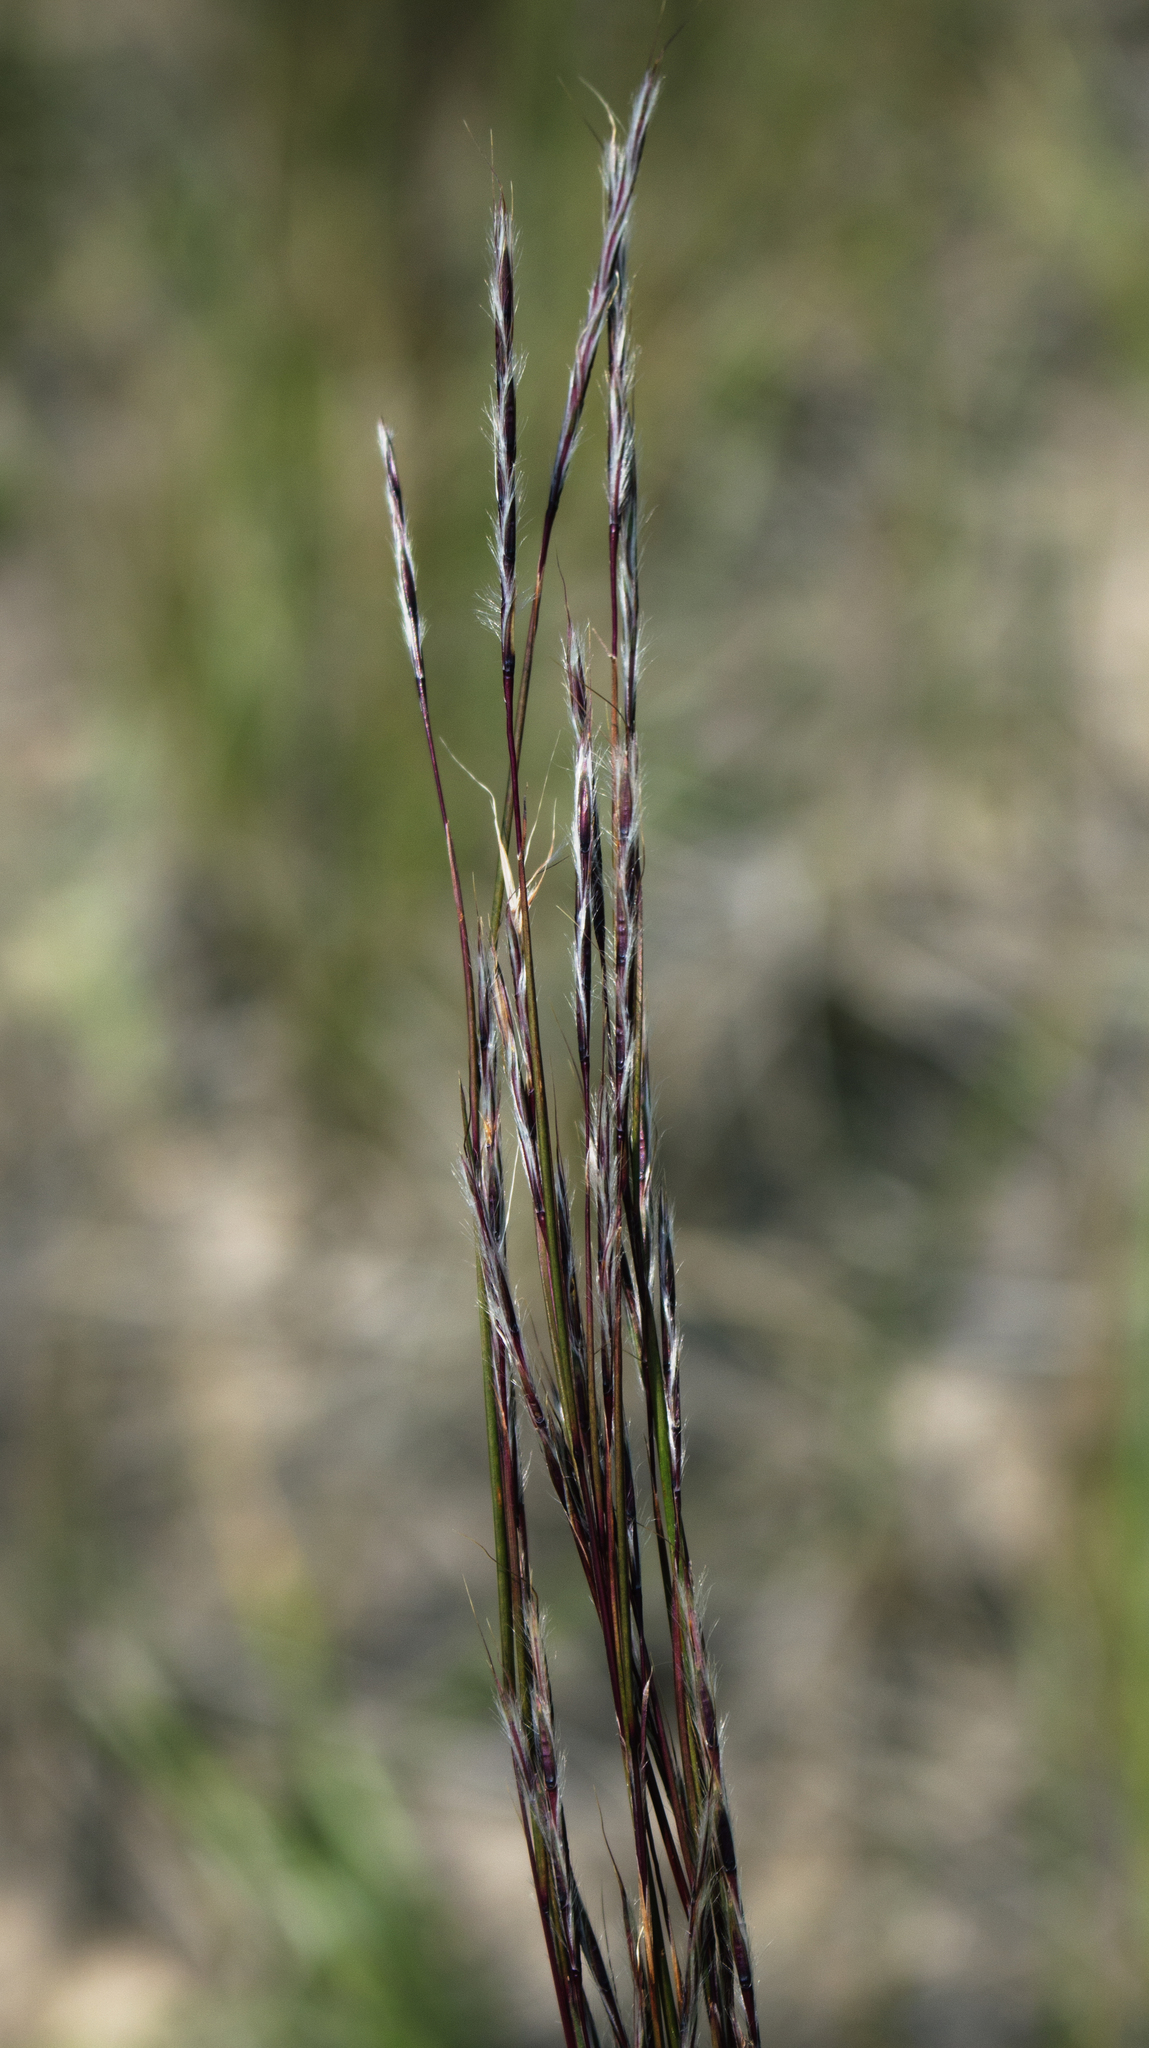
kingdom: Plantae
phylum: Tracheophyta
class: Liliopsida
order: Poales
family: Poaceae
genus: Schizachyrium
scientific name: Schizachyrium scoparium
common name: Little bluestem
